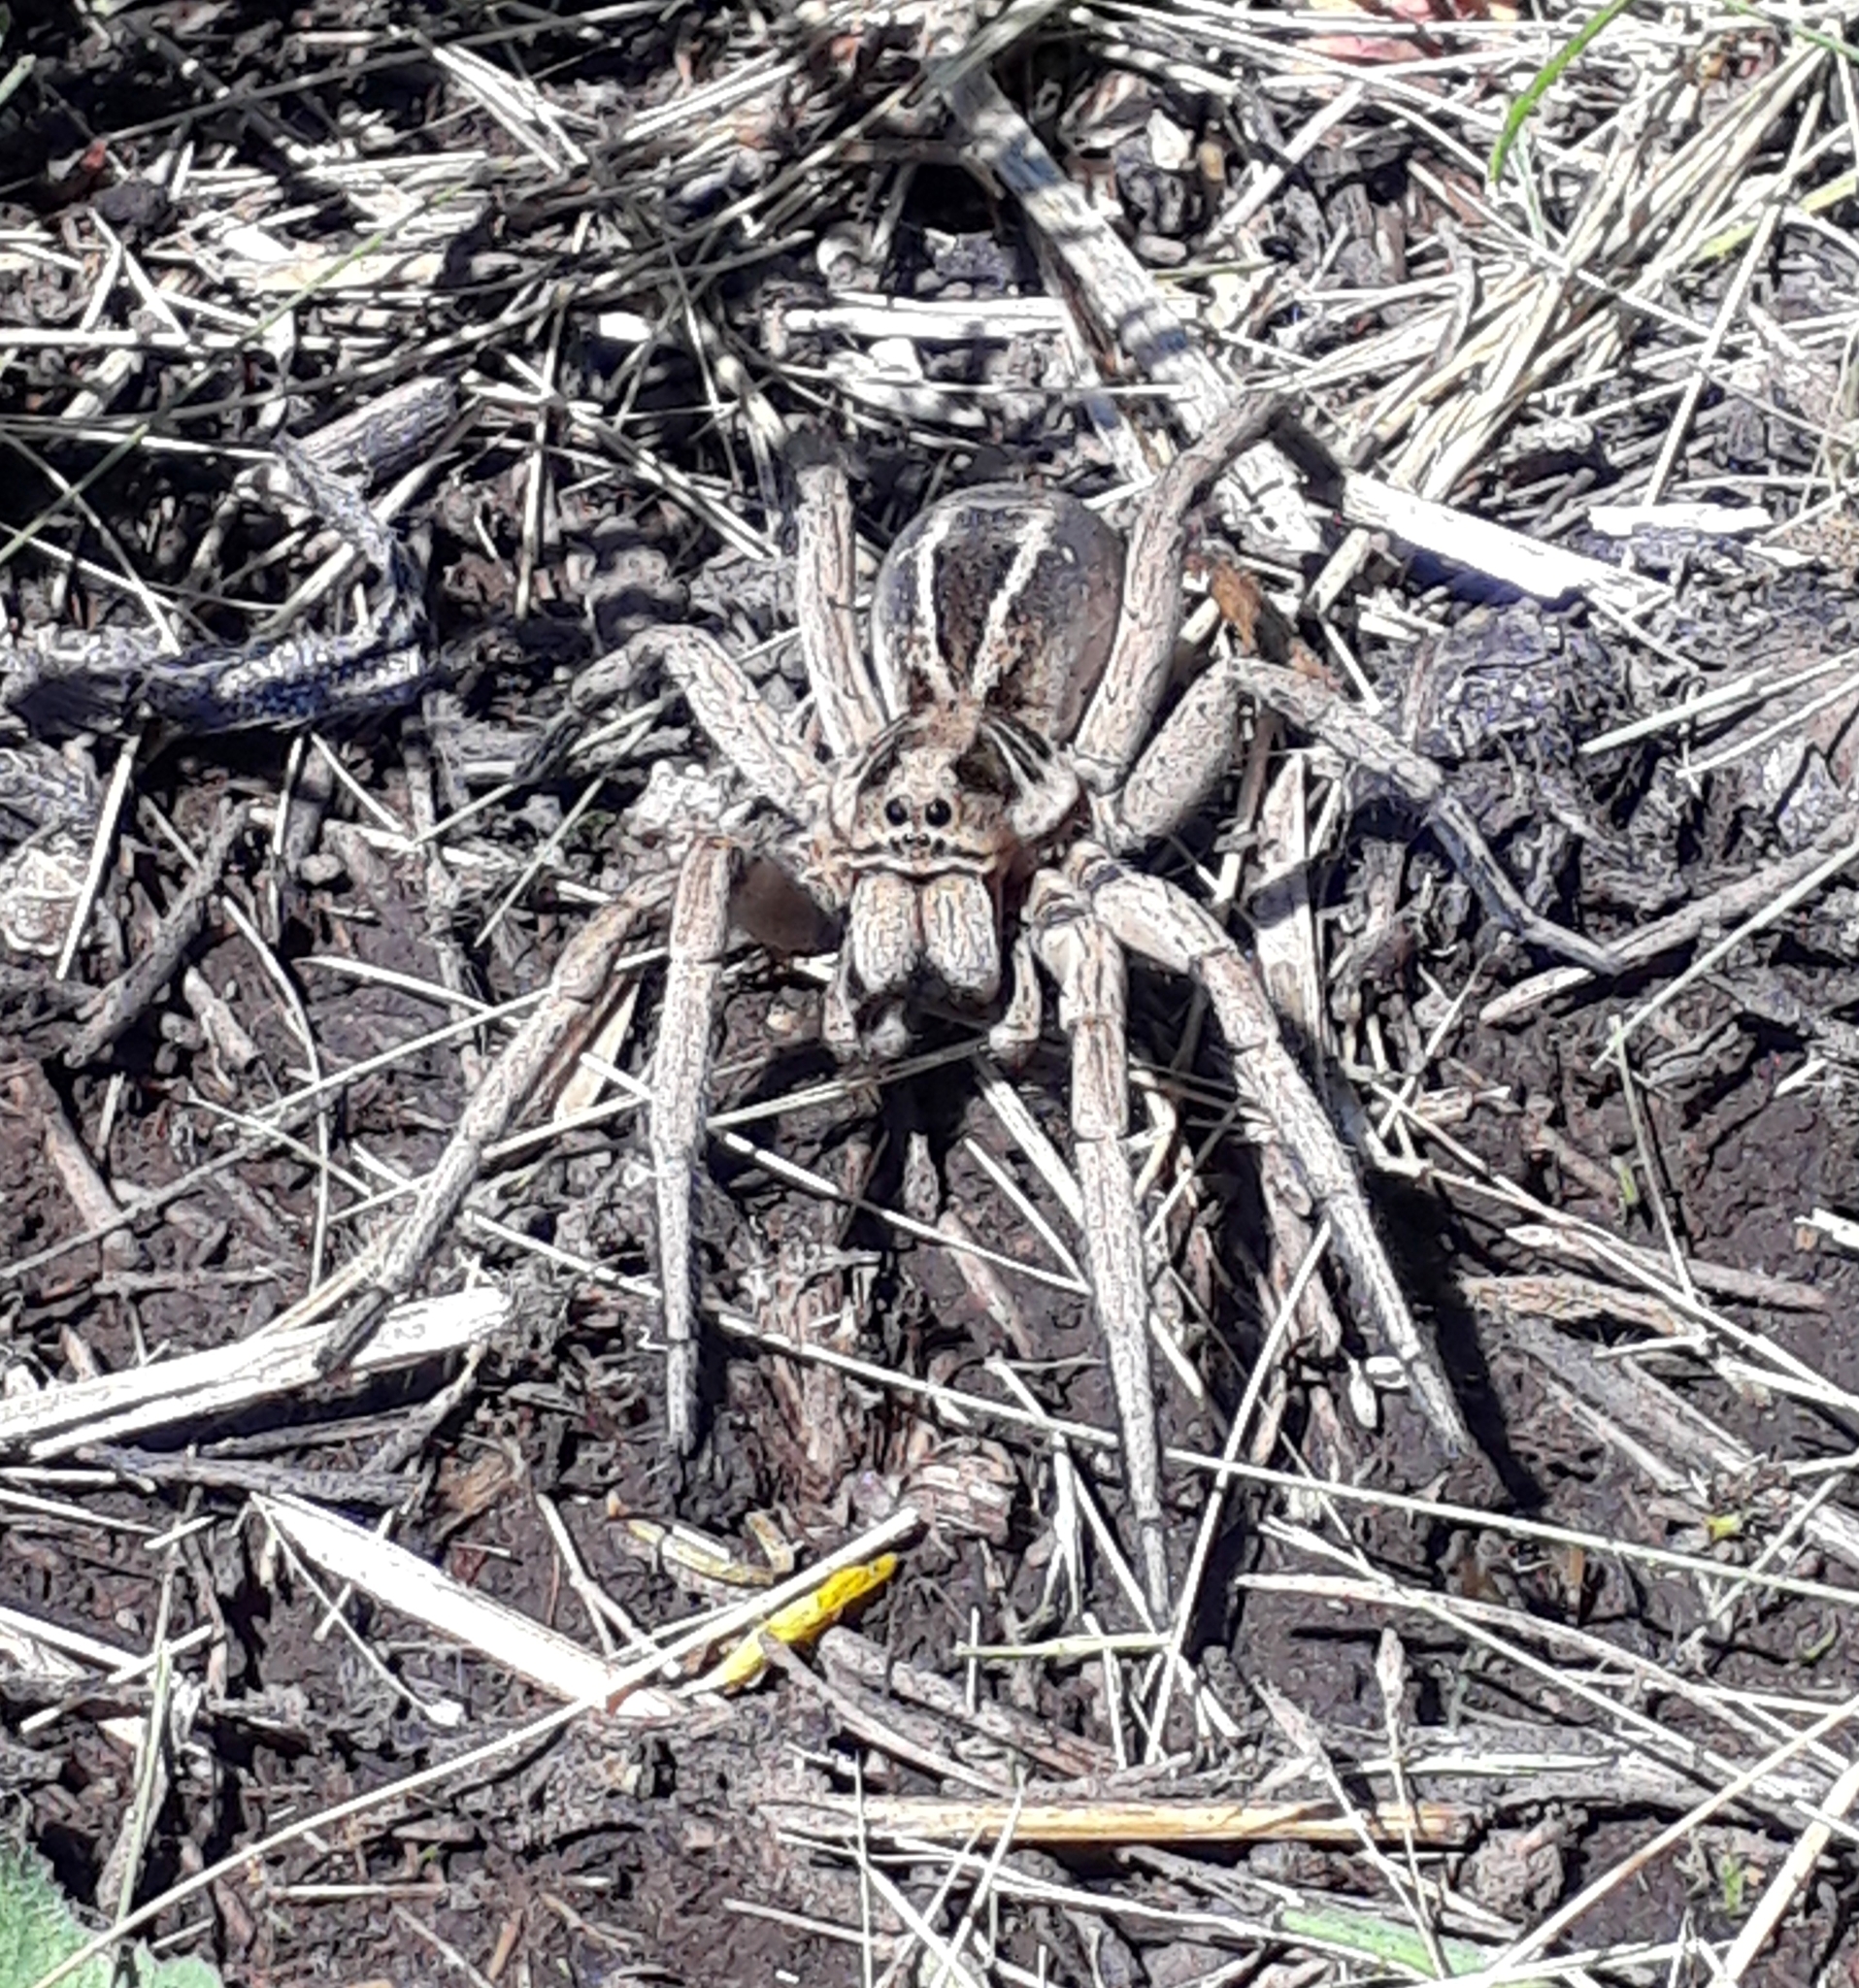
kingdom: Animalia
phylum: Arthropoda
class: Arachnida
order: Araneae
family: Lycosidae
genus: Lycosa
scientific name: Lycosa pampeana
